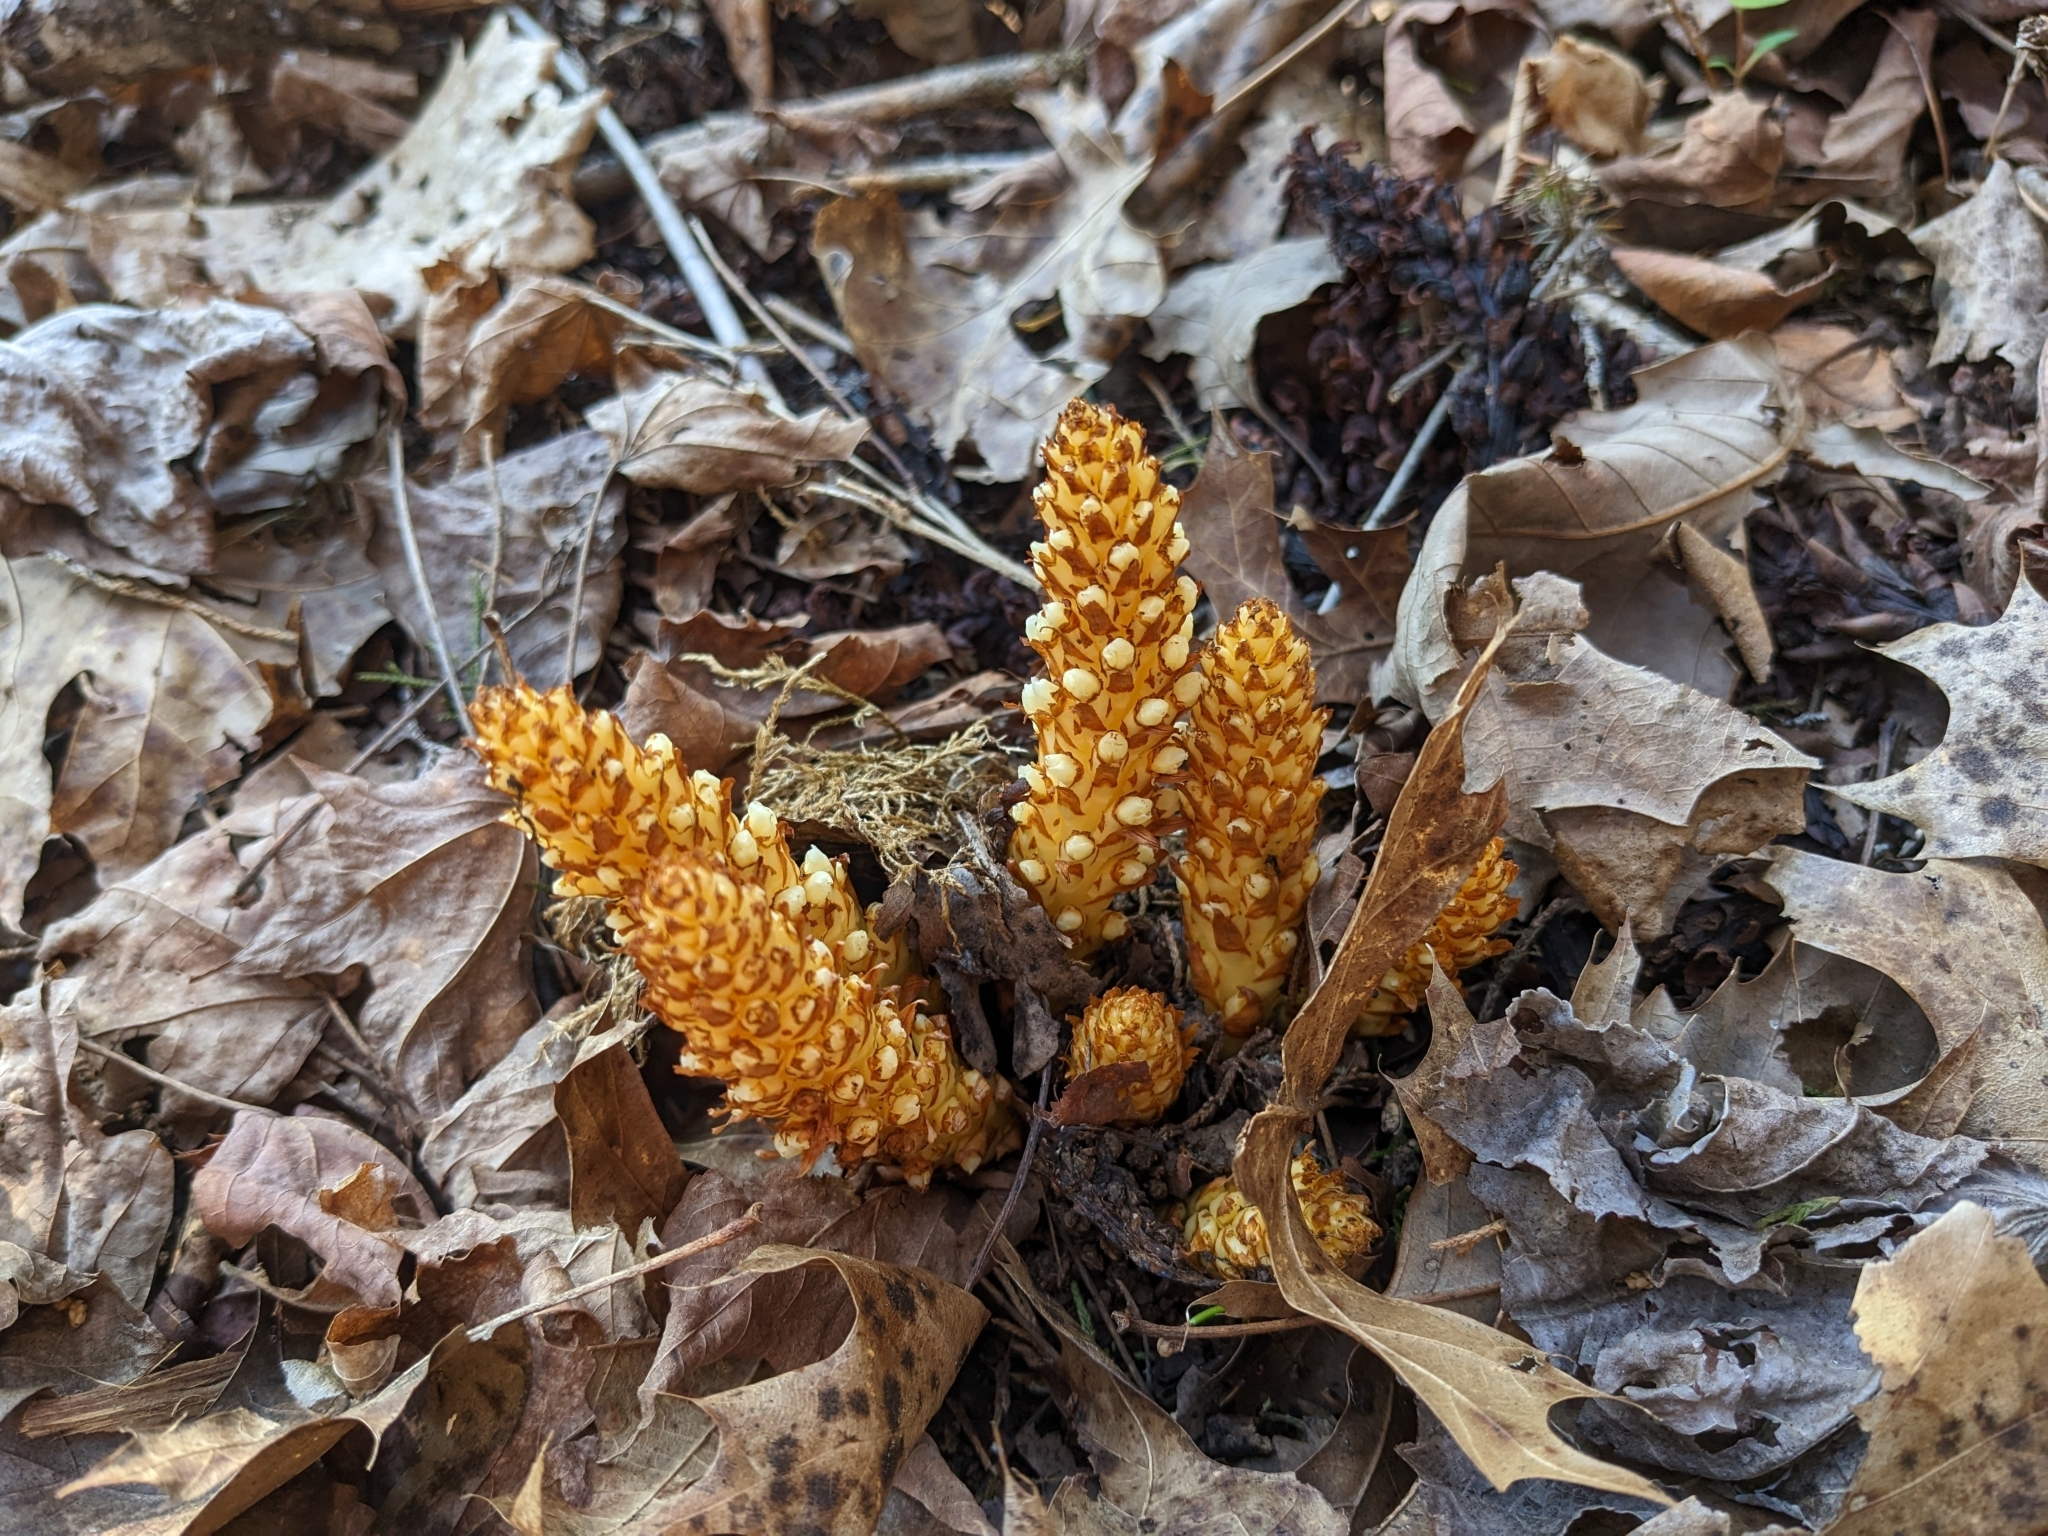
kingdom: Plantae
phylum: Tracheophyta
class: Magnoliopsida
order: Lamiales
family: Orobanchaceae
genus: Conopholis
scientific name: Conopholis americana
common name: American cancer-root
